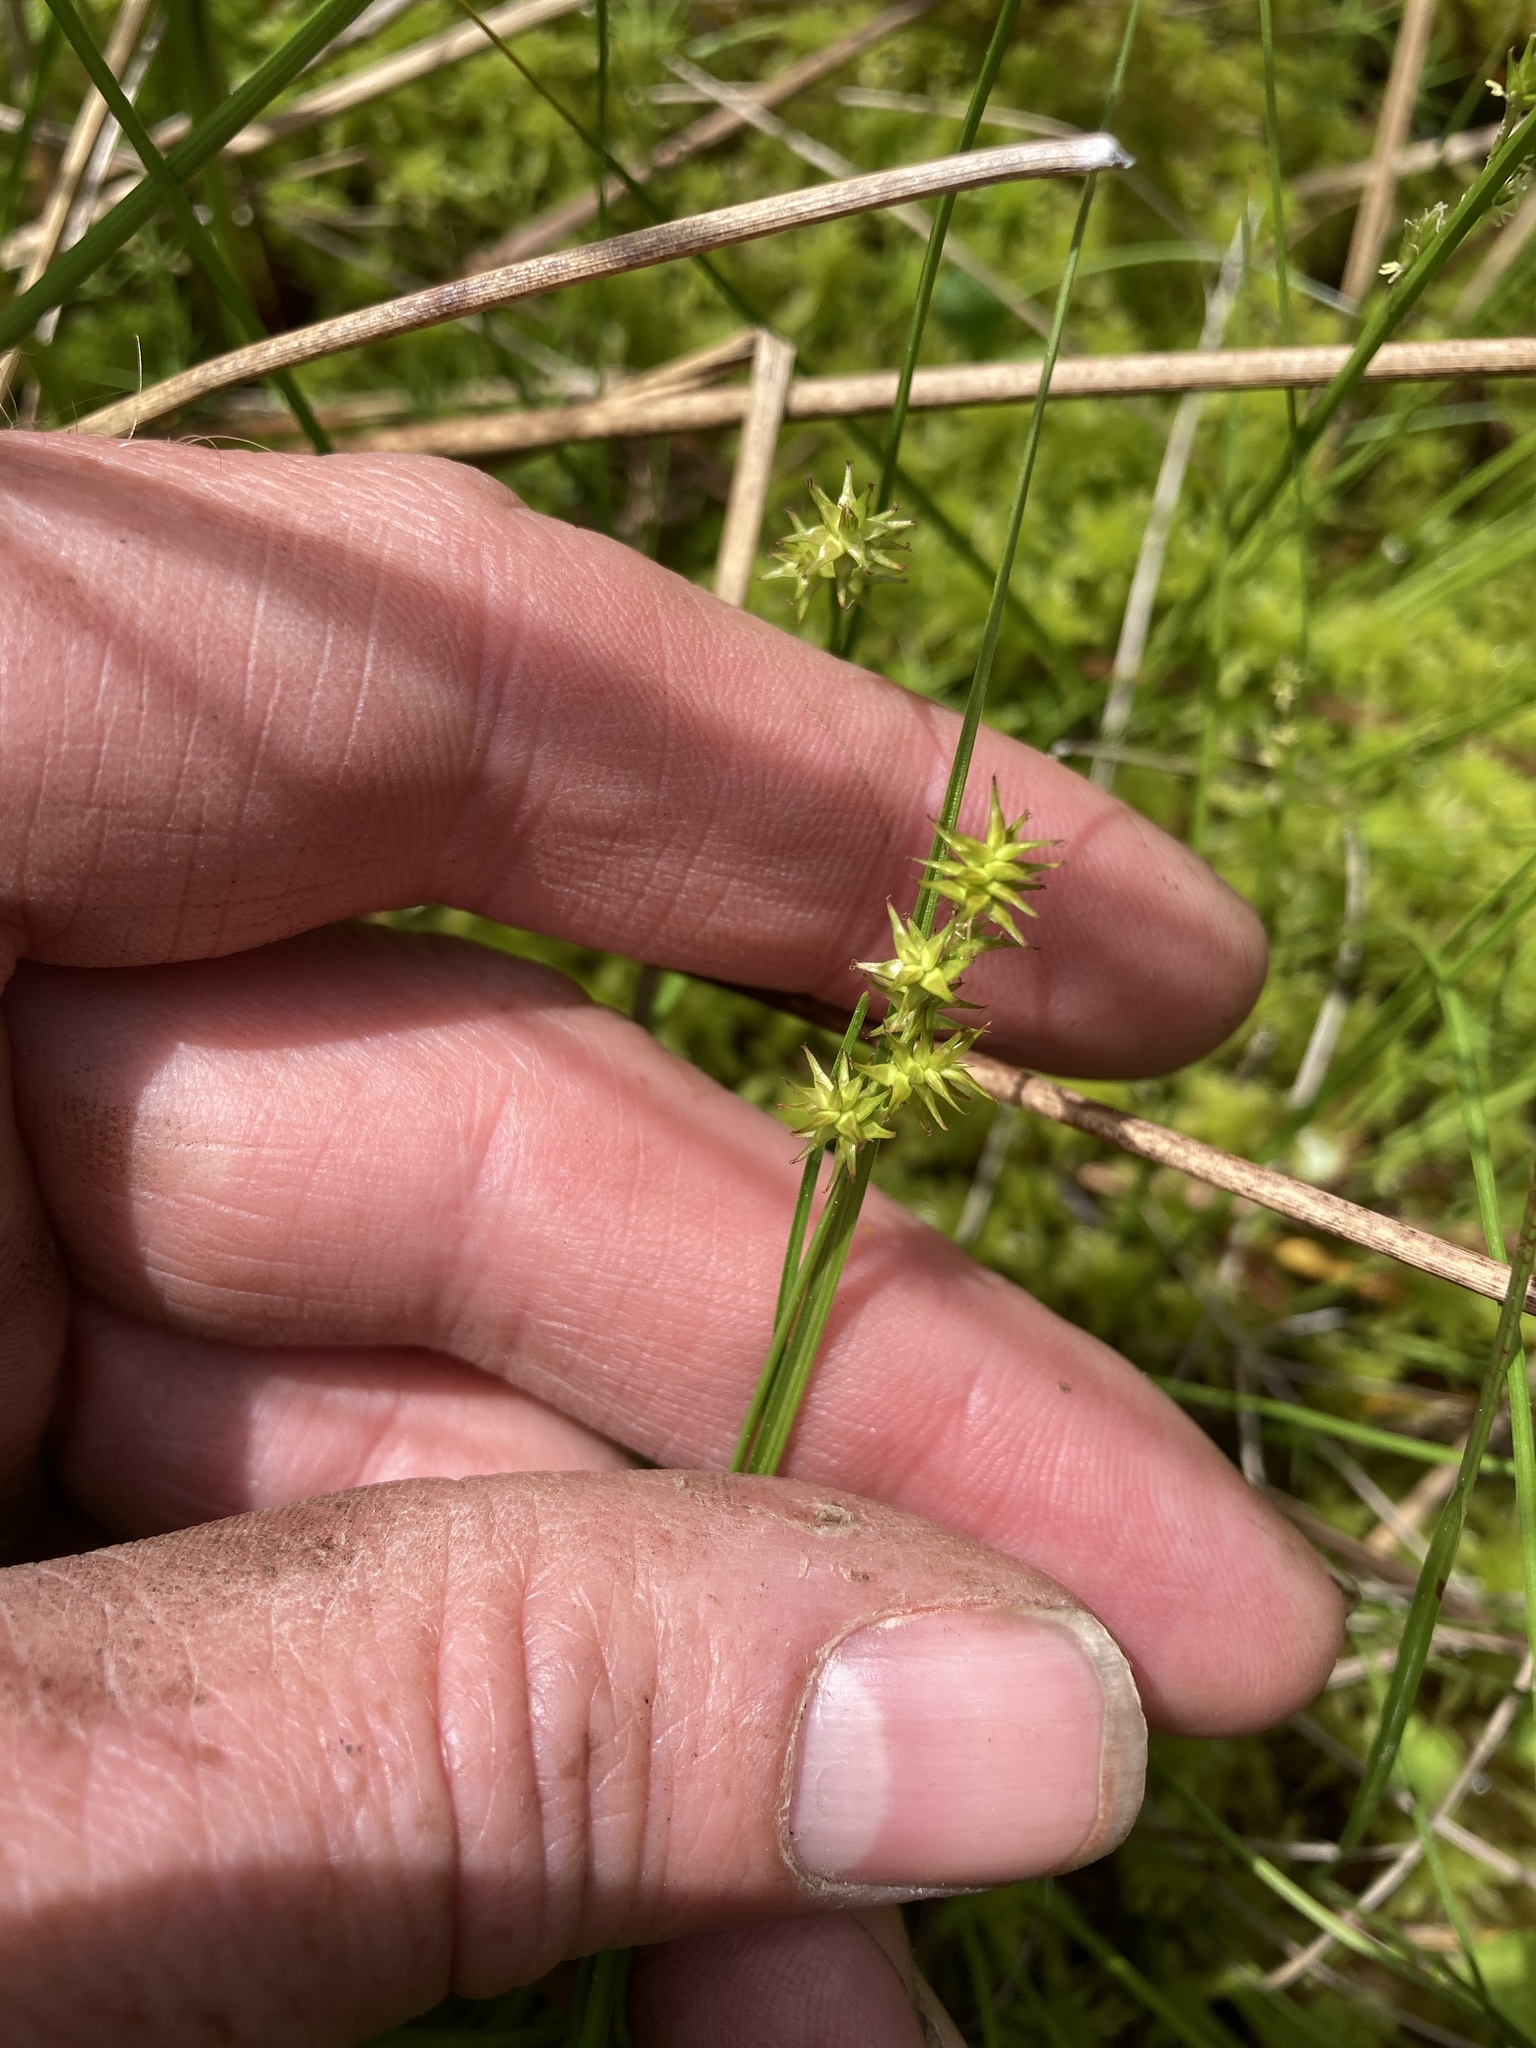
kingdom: Plantae
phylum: Tracheophyta
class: Liliopsida
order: Poales
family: Cyperaceae
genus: Carex
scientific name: Carex echinata
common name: Star sedge
